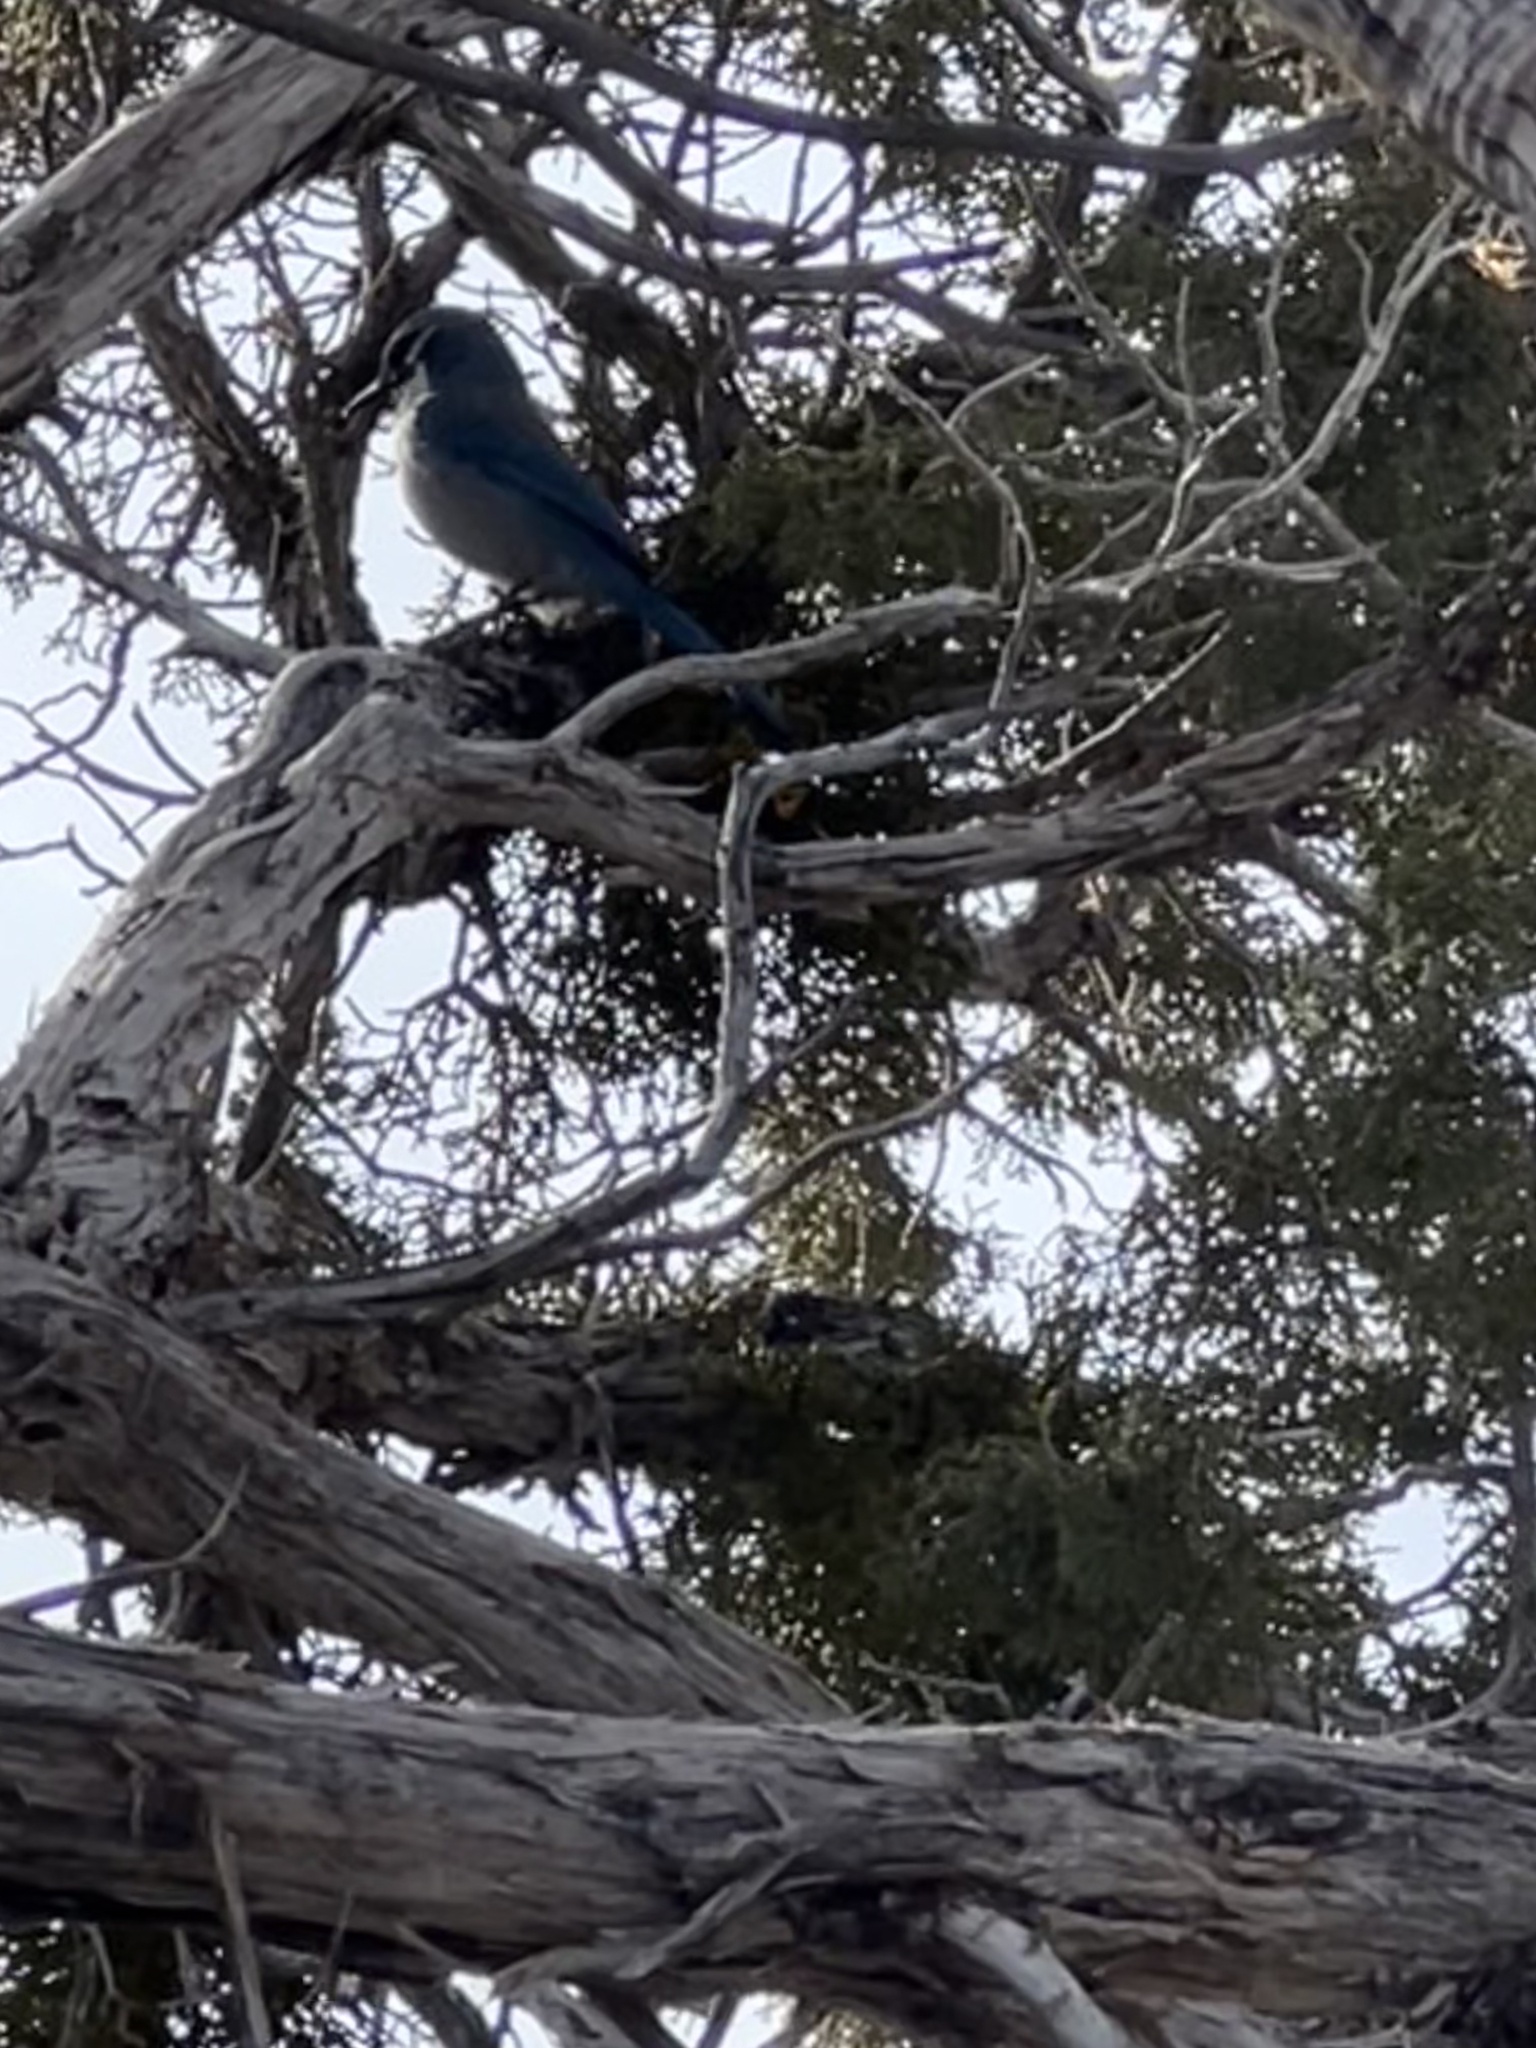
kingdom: Animalia
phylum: Chordata
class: Aves
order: Passeriformes
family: Corvidae
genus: Aphelocoma
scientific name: Aphelocoma woodhouseii
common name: Woodhouse's scrub-jay
